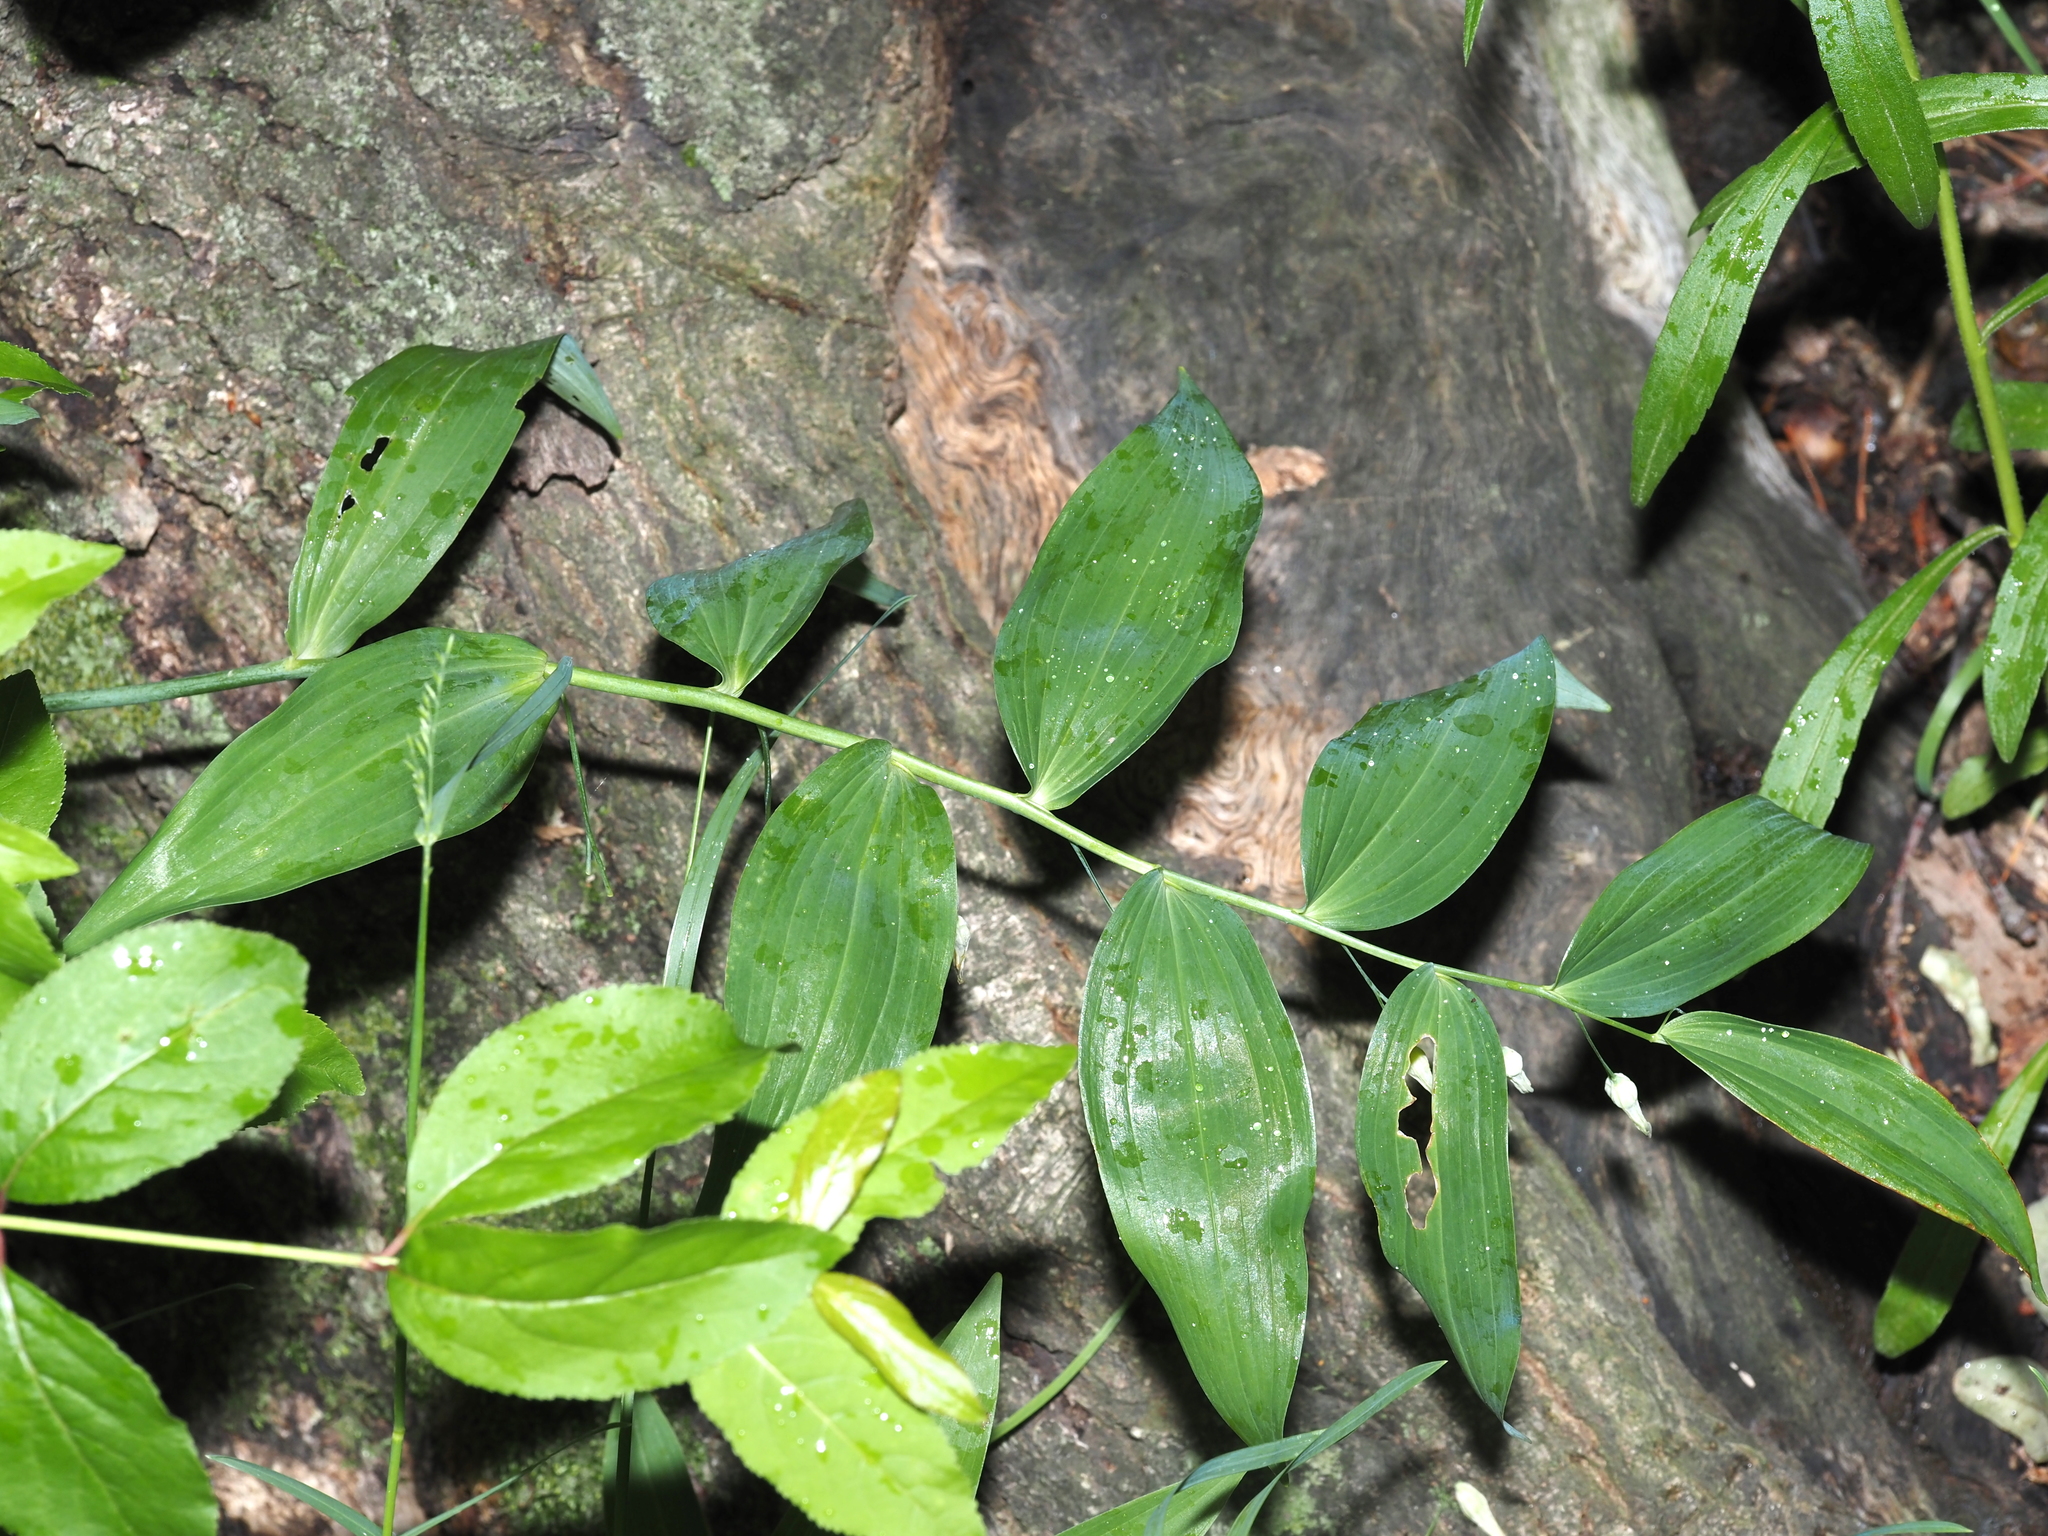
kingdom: Plantae
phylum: Tracheophyta
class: Liliopsida
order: Asparagales
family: Asparagaceae
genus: Polygonatum
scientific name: Polygonatum biflorum
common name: American solomon's-seal
